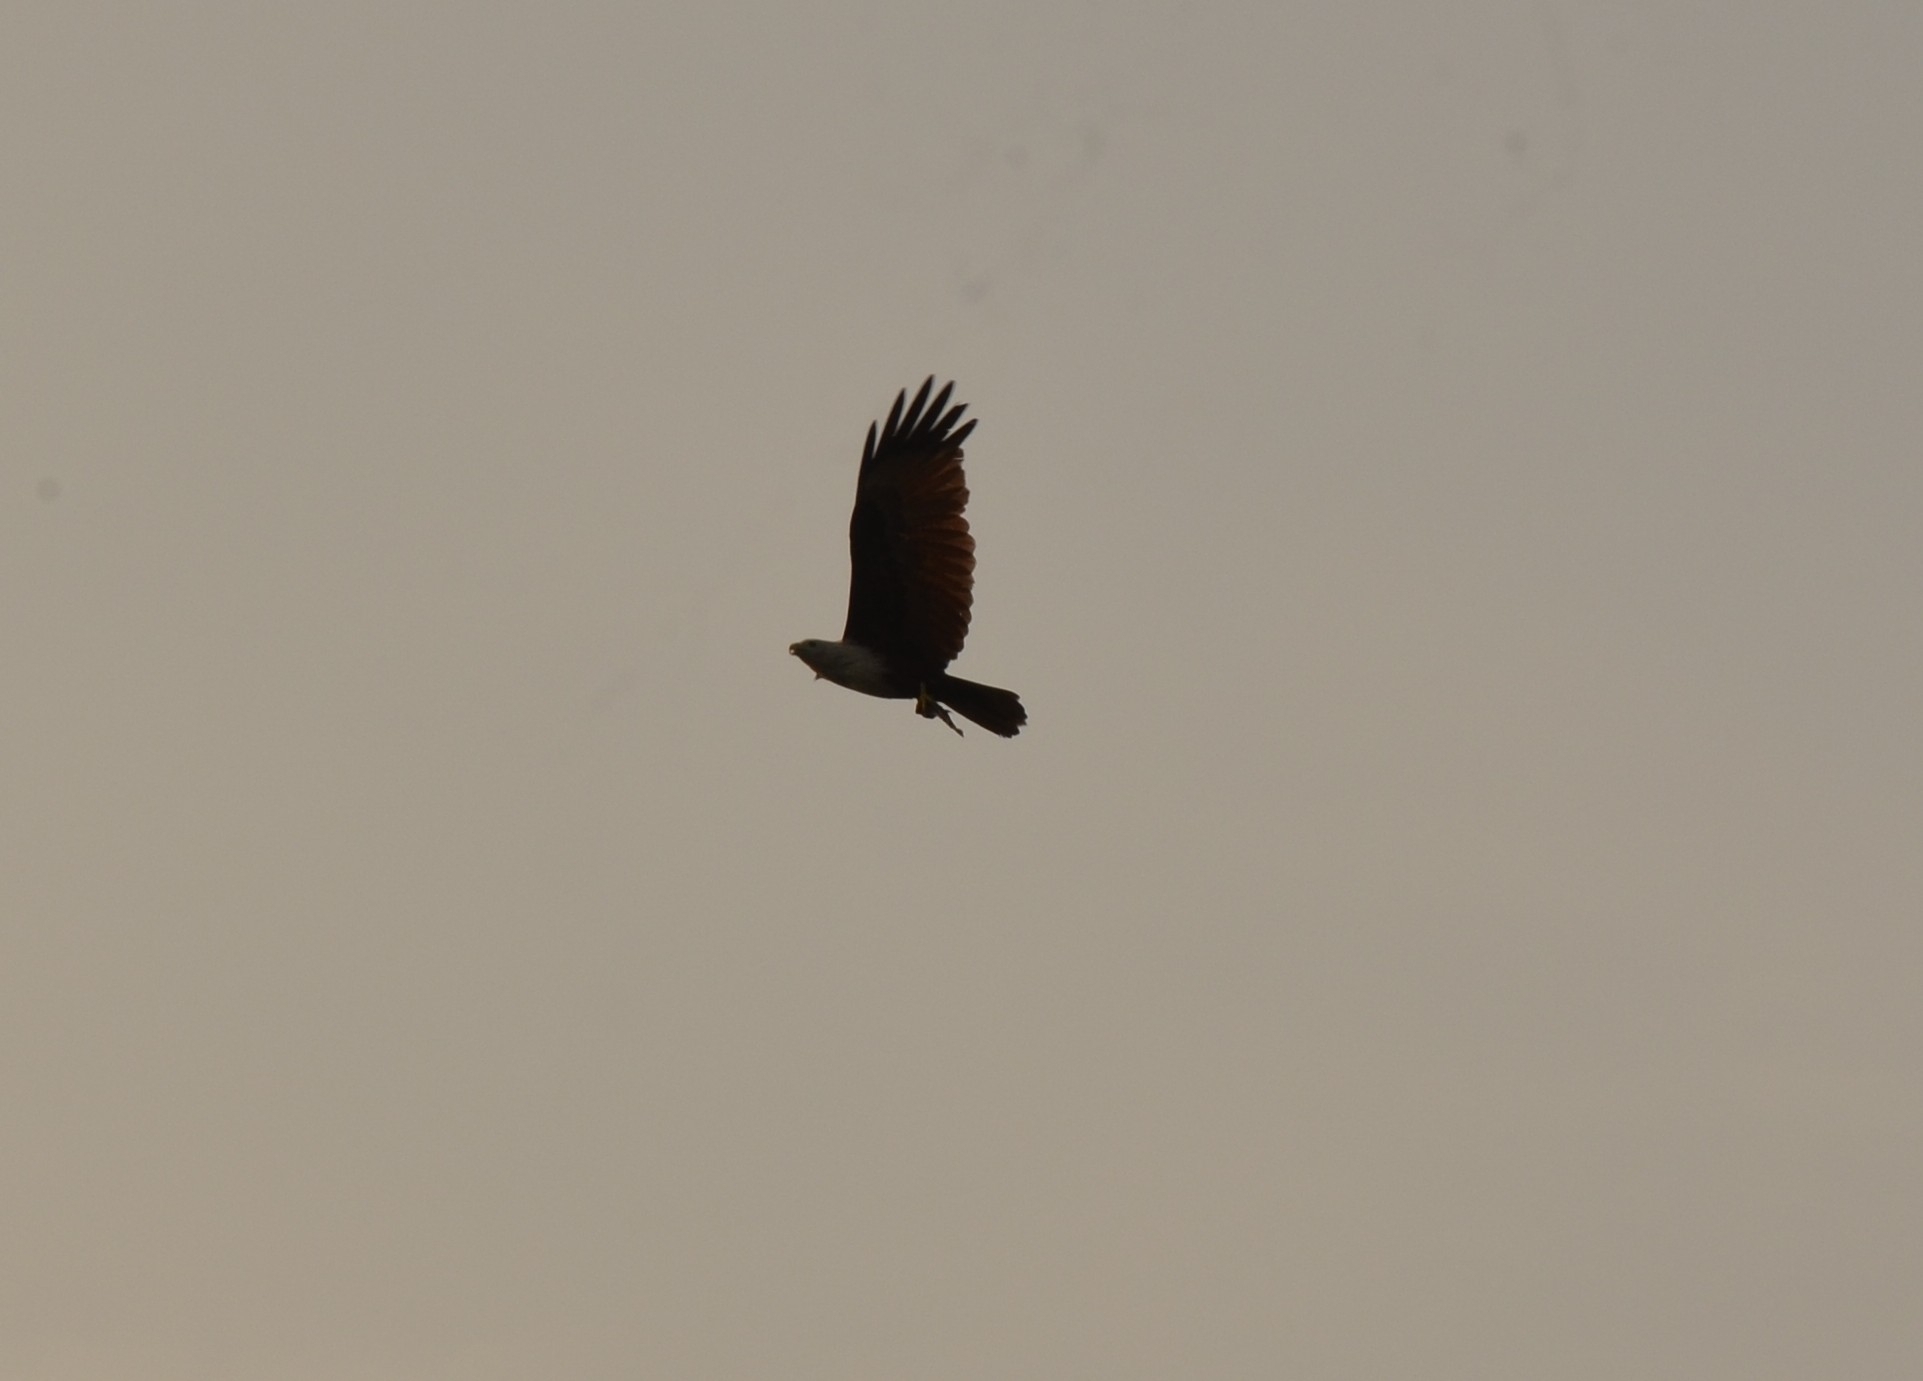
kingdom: Animalia
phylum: Chordata
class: Aves
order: Accipitriformes
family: Accipitridae
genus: Haliastur
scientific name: Haliastur indus
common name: Brahminy kite
